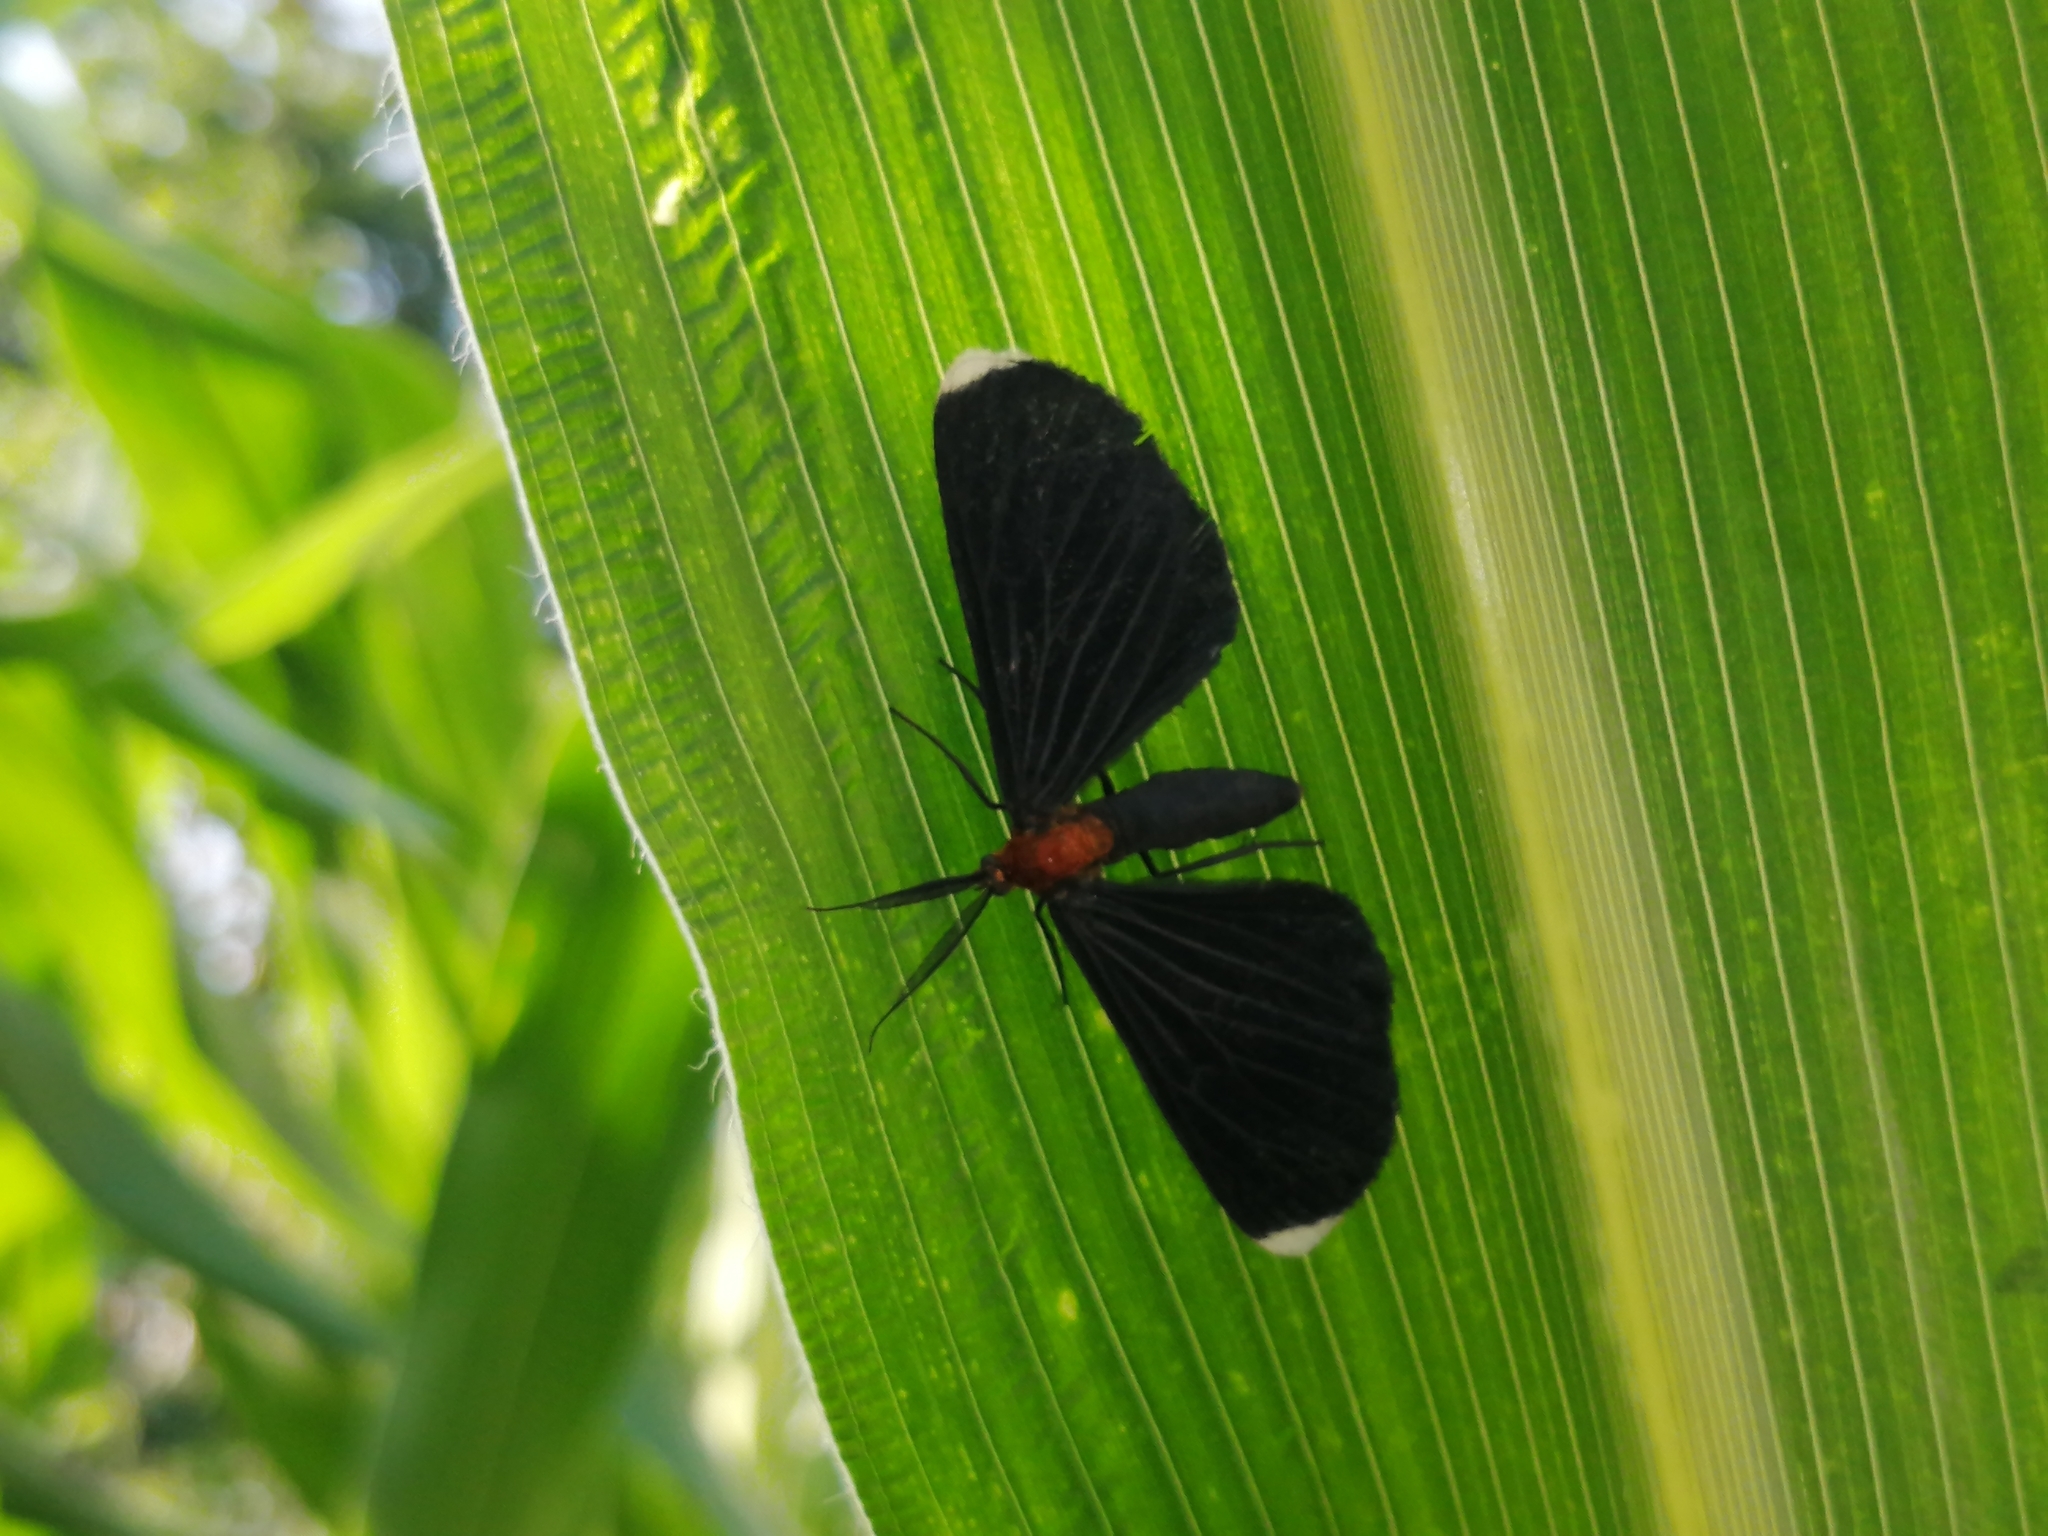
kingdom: Animalia
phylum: Arthropoda
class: Insecta
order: Lepidoptera
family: Geometridae
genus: Melanchroia
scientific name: Melanchroia chephise
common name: White-tipped black
